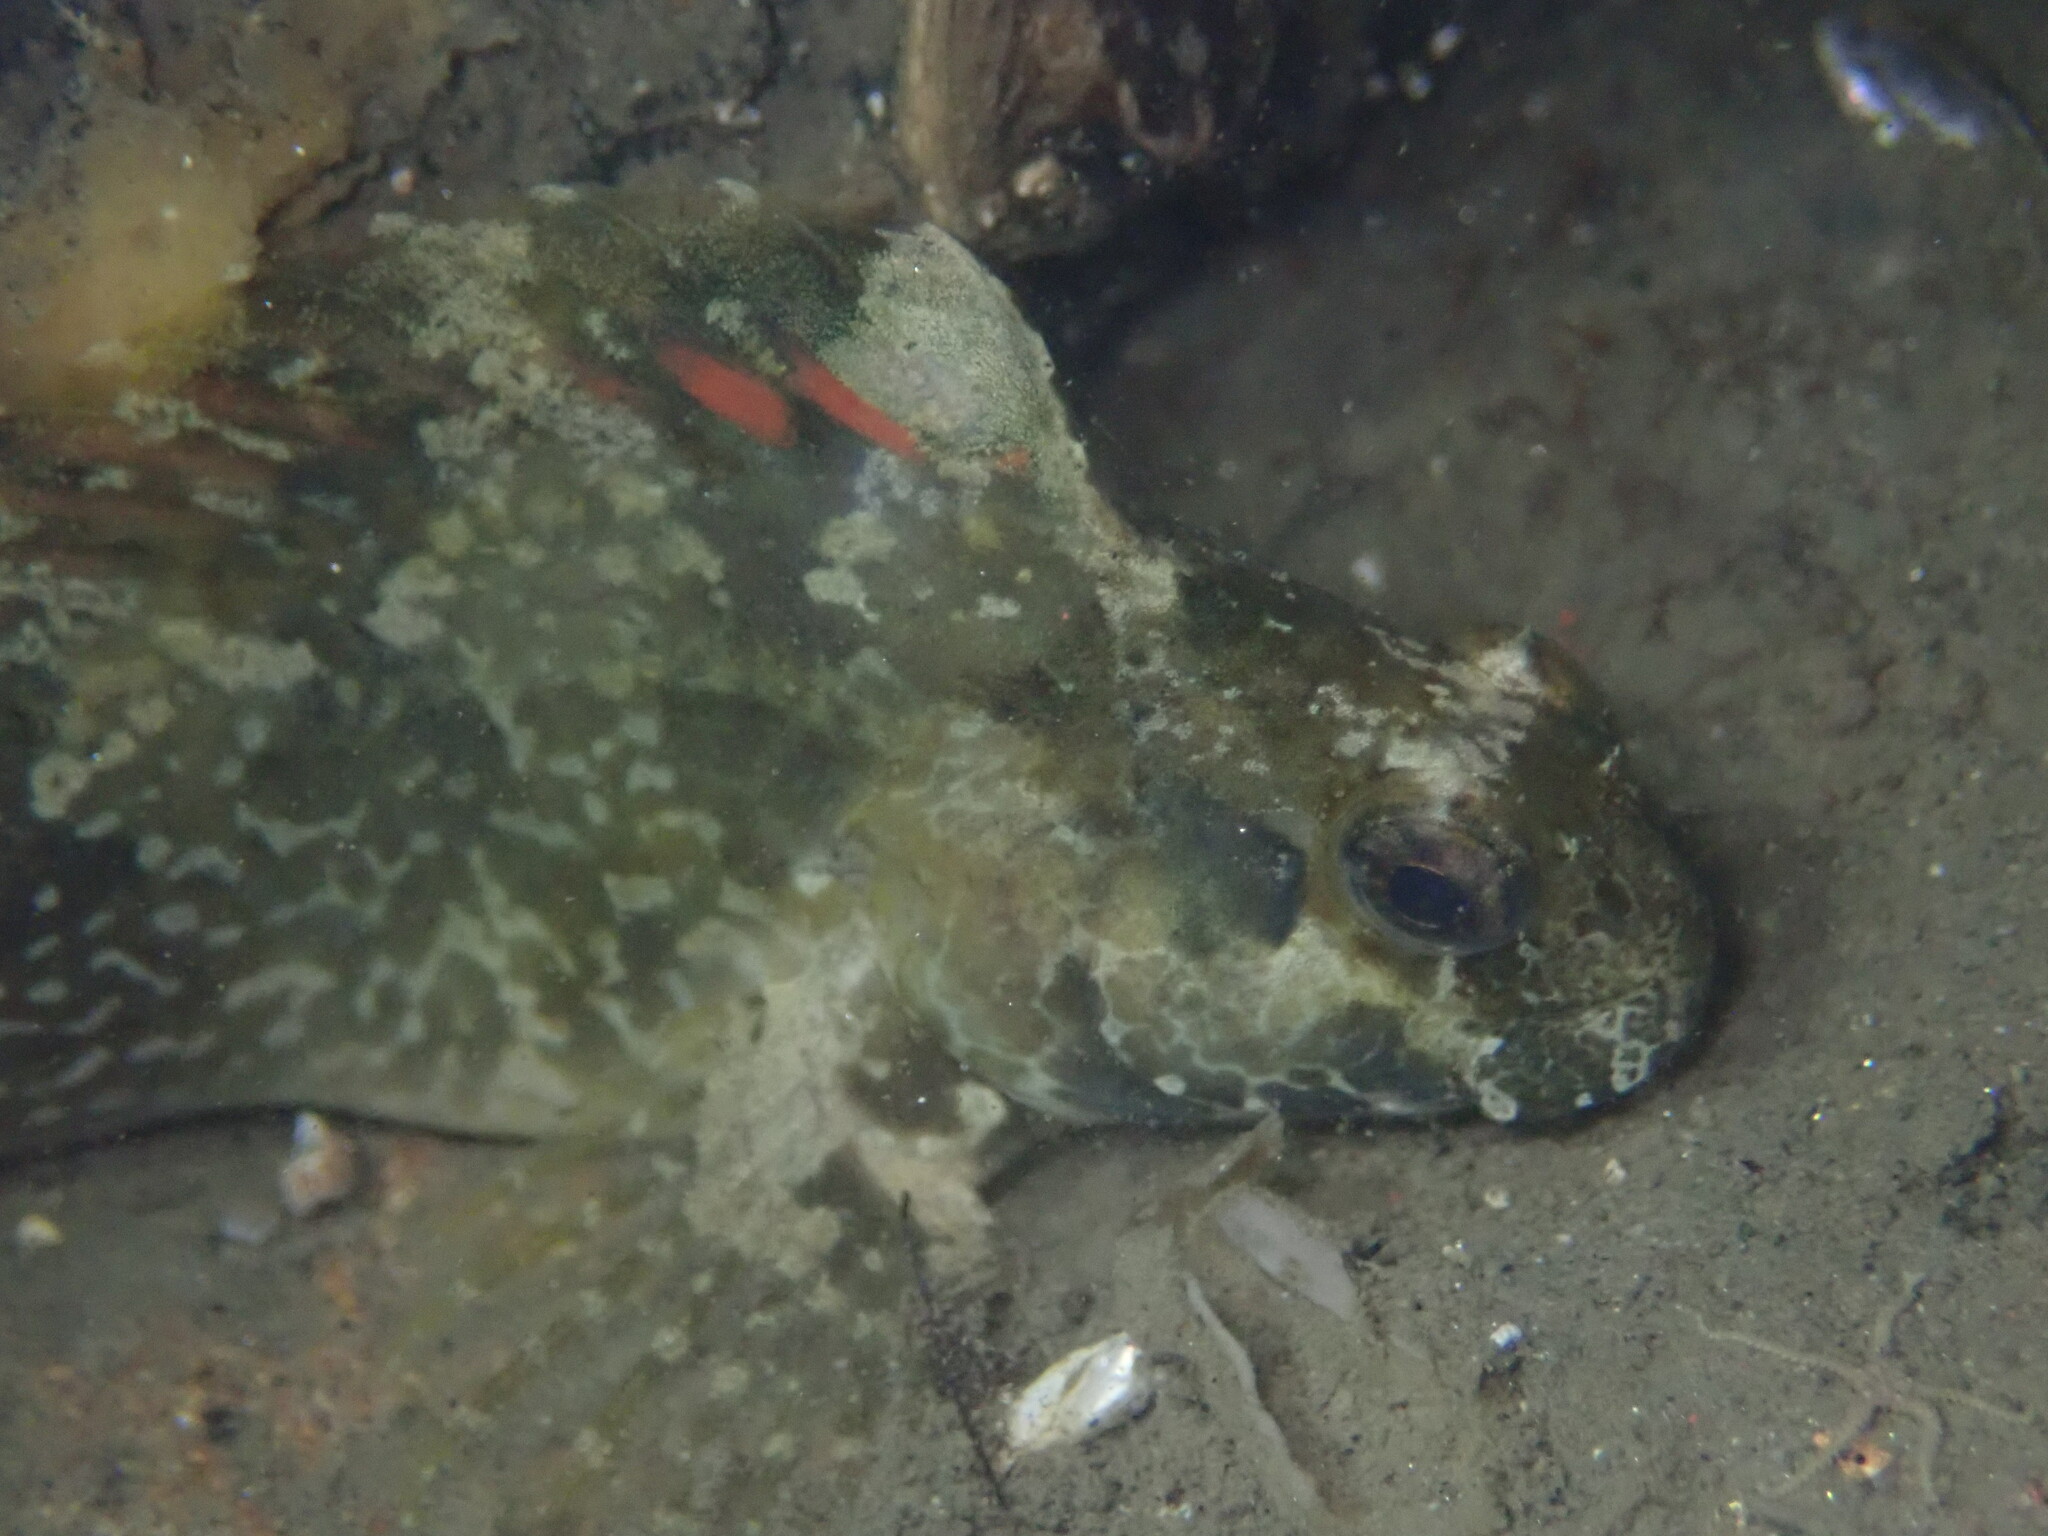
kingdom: Animalia
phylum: Chordata
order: Perciformes
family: Blenniidae
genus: Hypsoblennius
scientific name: Hypsoblennius gentilis
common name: Bay blenny
